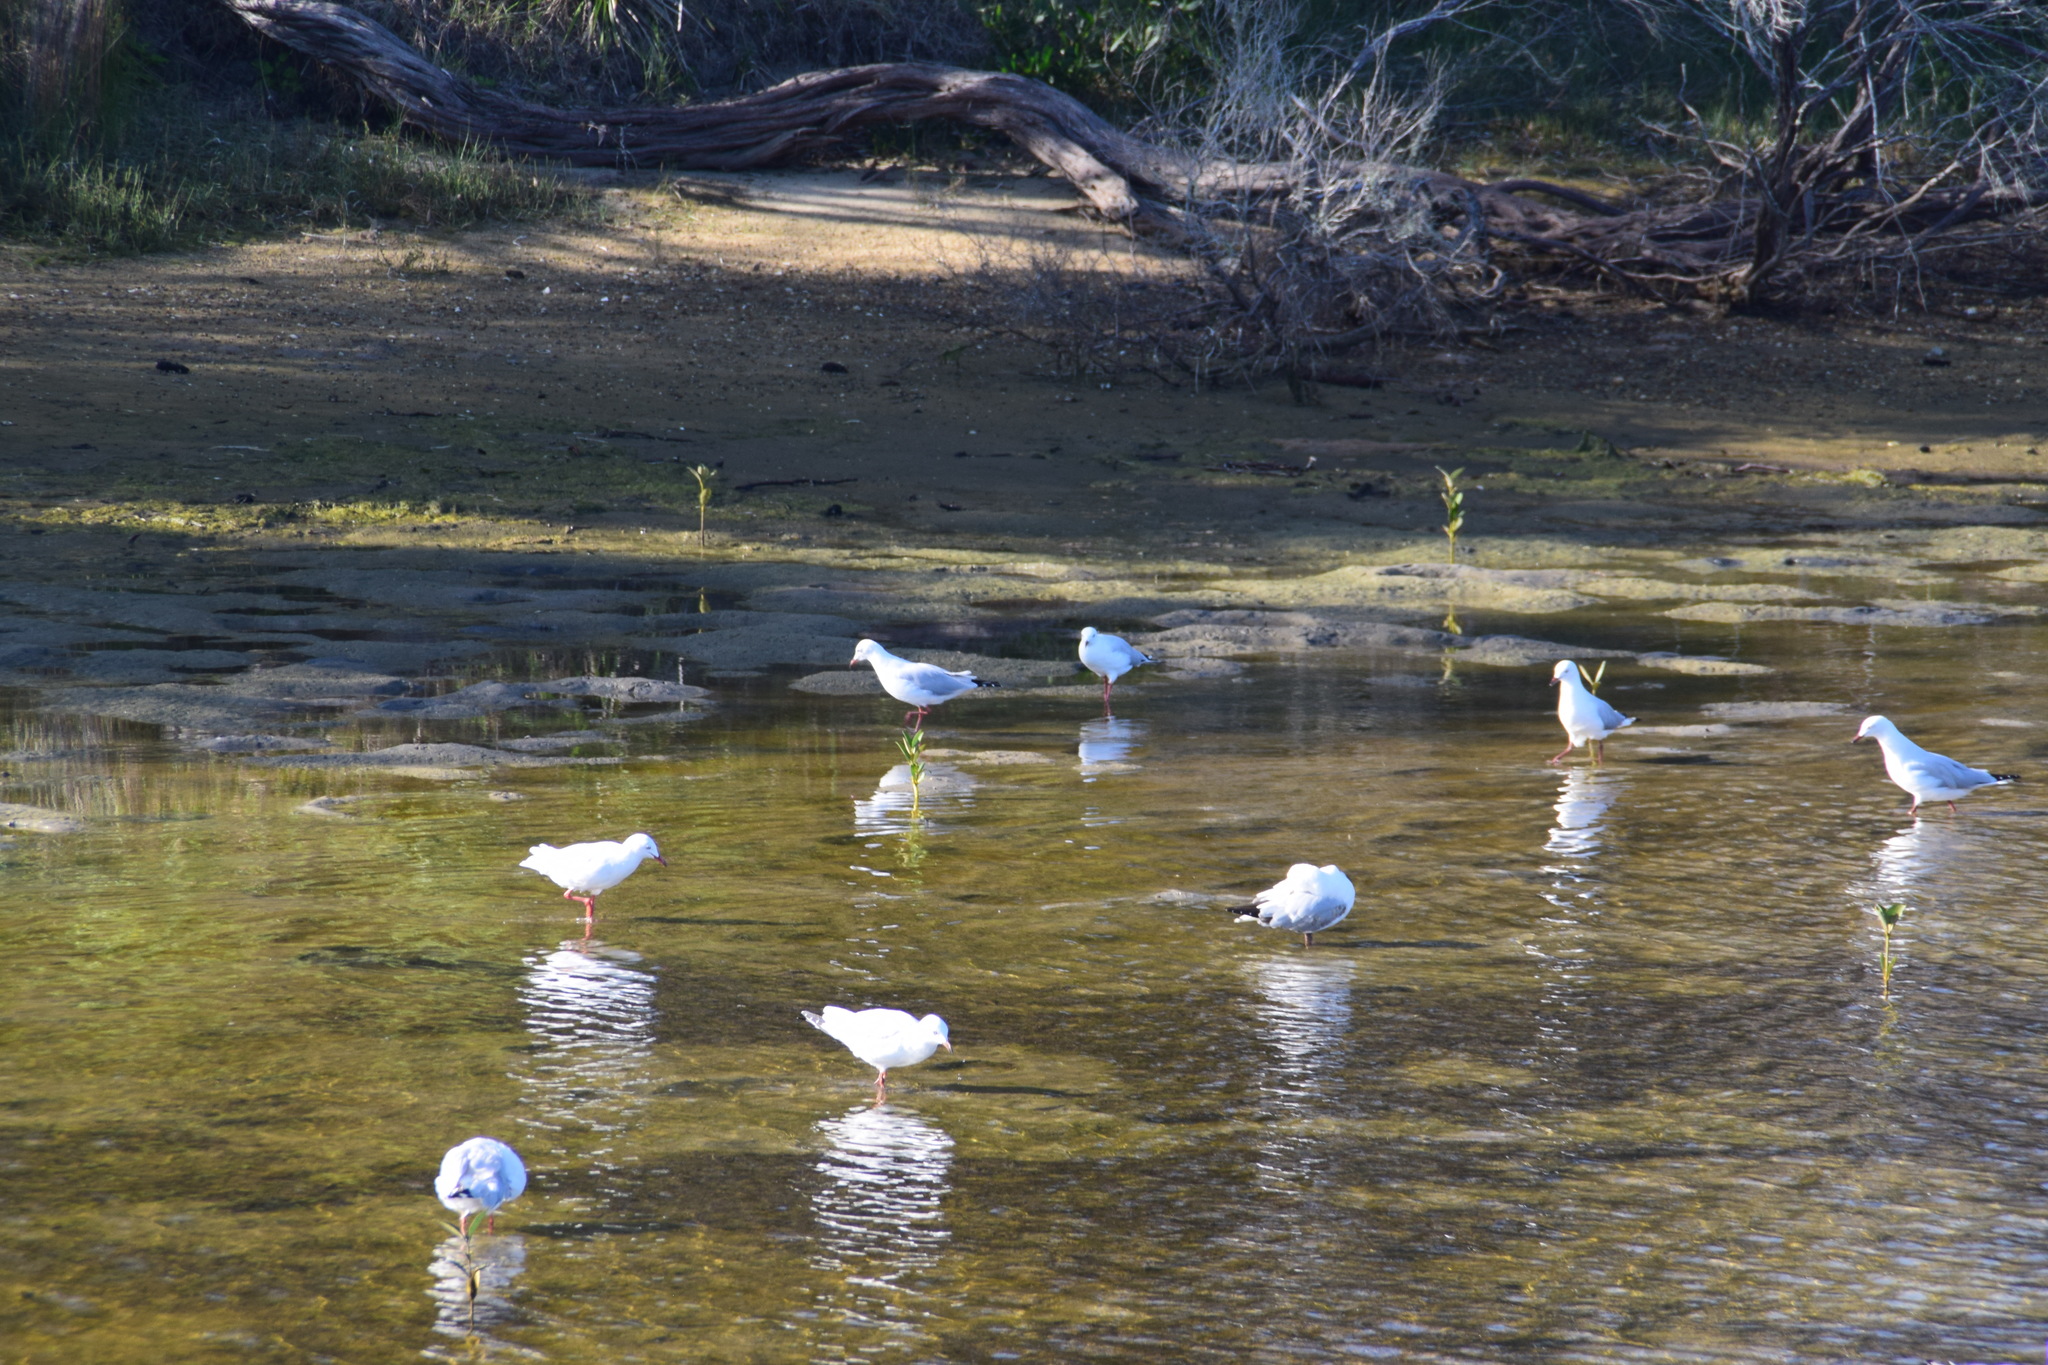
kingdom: Animalia
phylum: Chordata
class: Aves
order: Charadriiformes
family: Laridae
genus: Chroicocephalus
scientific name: Chroicocephalus novaehollandiae
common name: Silver gull
